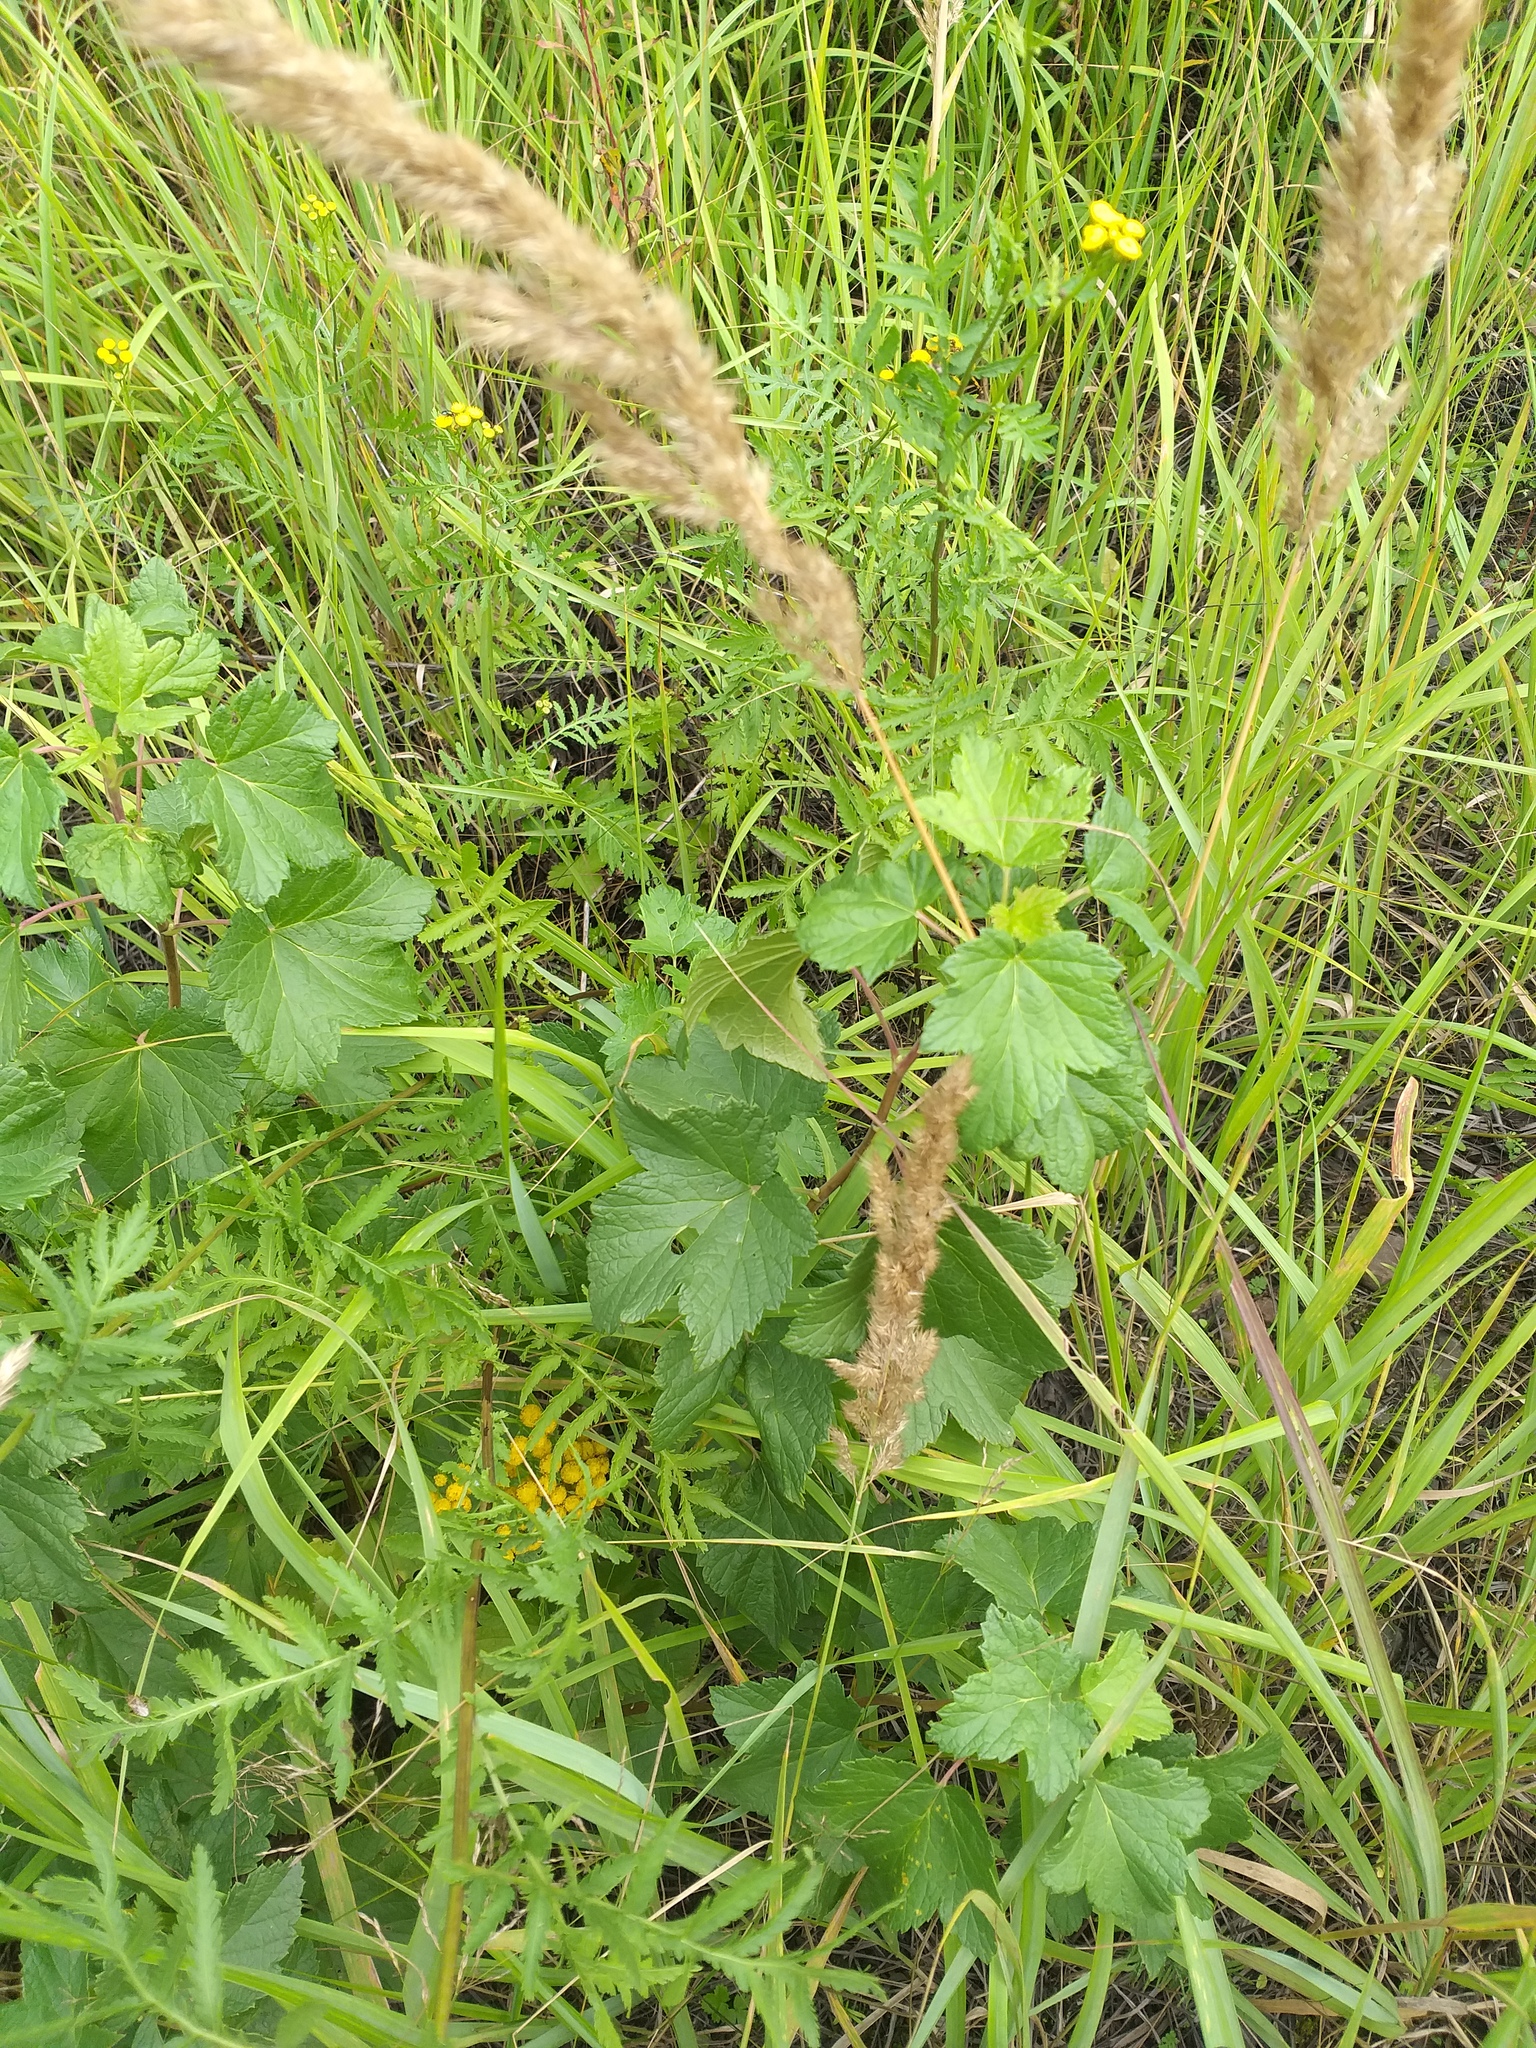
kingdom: Plantae
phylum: Tracheophyta
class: Magnoliopsida
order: Saxifragales
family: Grossulariaceae
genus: Ribes
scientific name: Ribes nigrum
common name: Black currant
